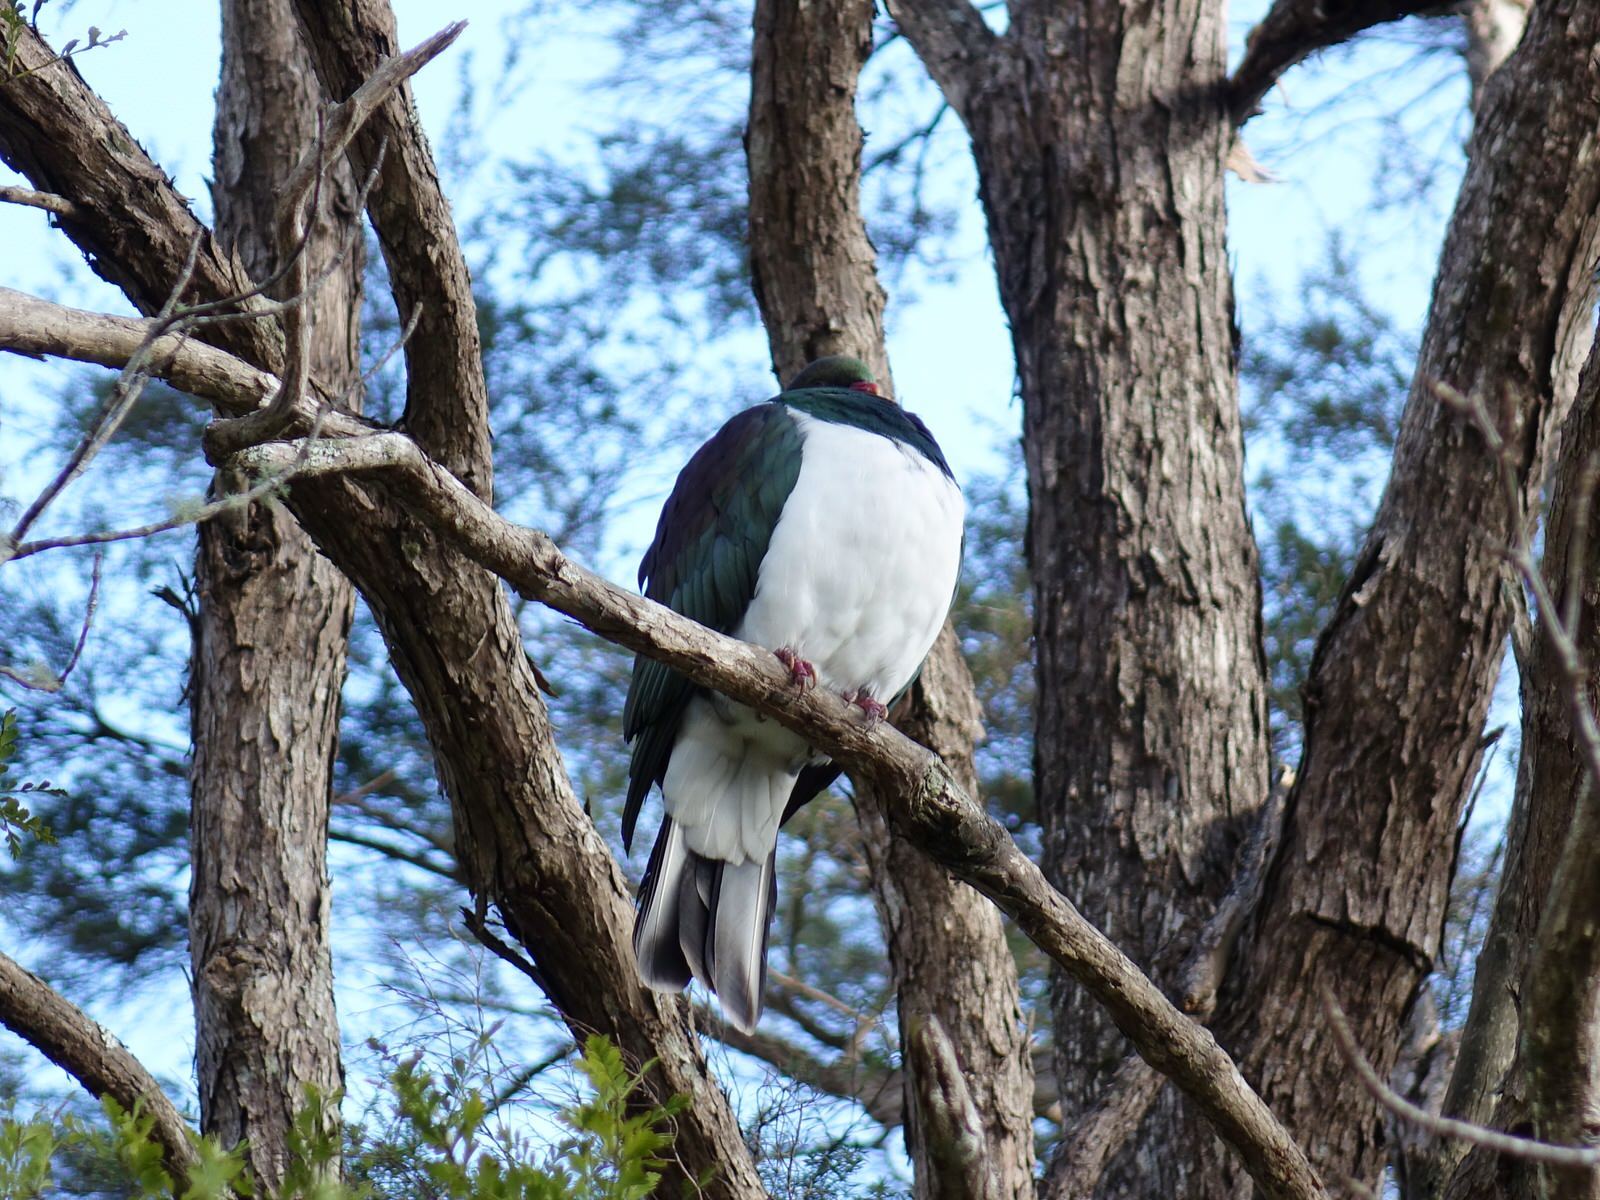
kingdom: Animalia
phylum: Chordata
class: Aves
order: Columbiformes
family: Columbidae
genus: Hemiphaga
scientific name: Hemiphaga novaeseelandiae
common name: New zealand pigeon
